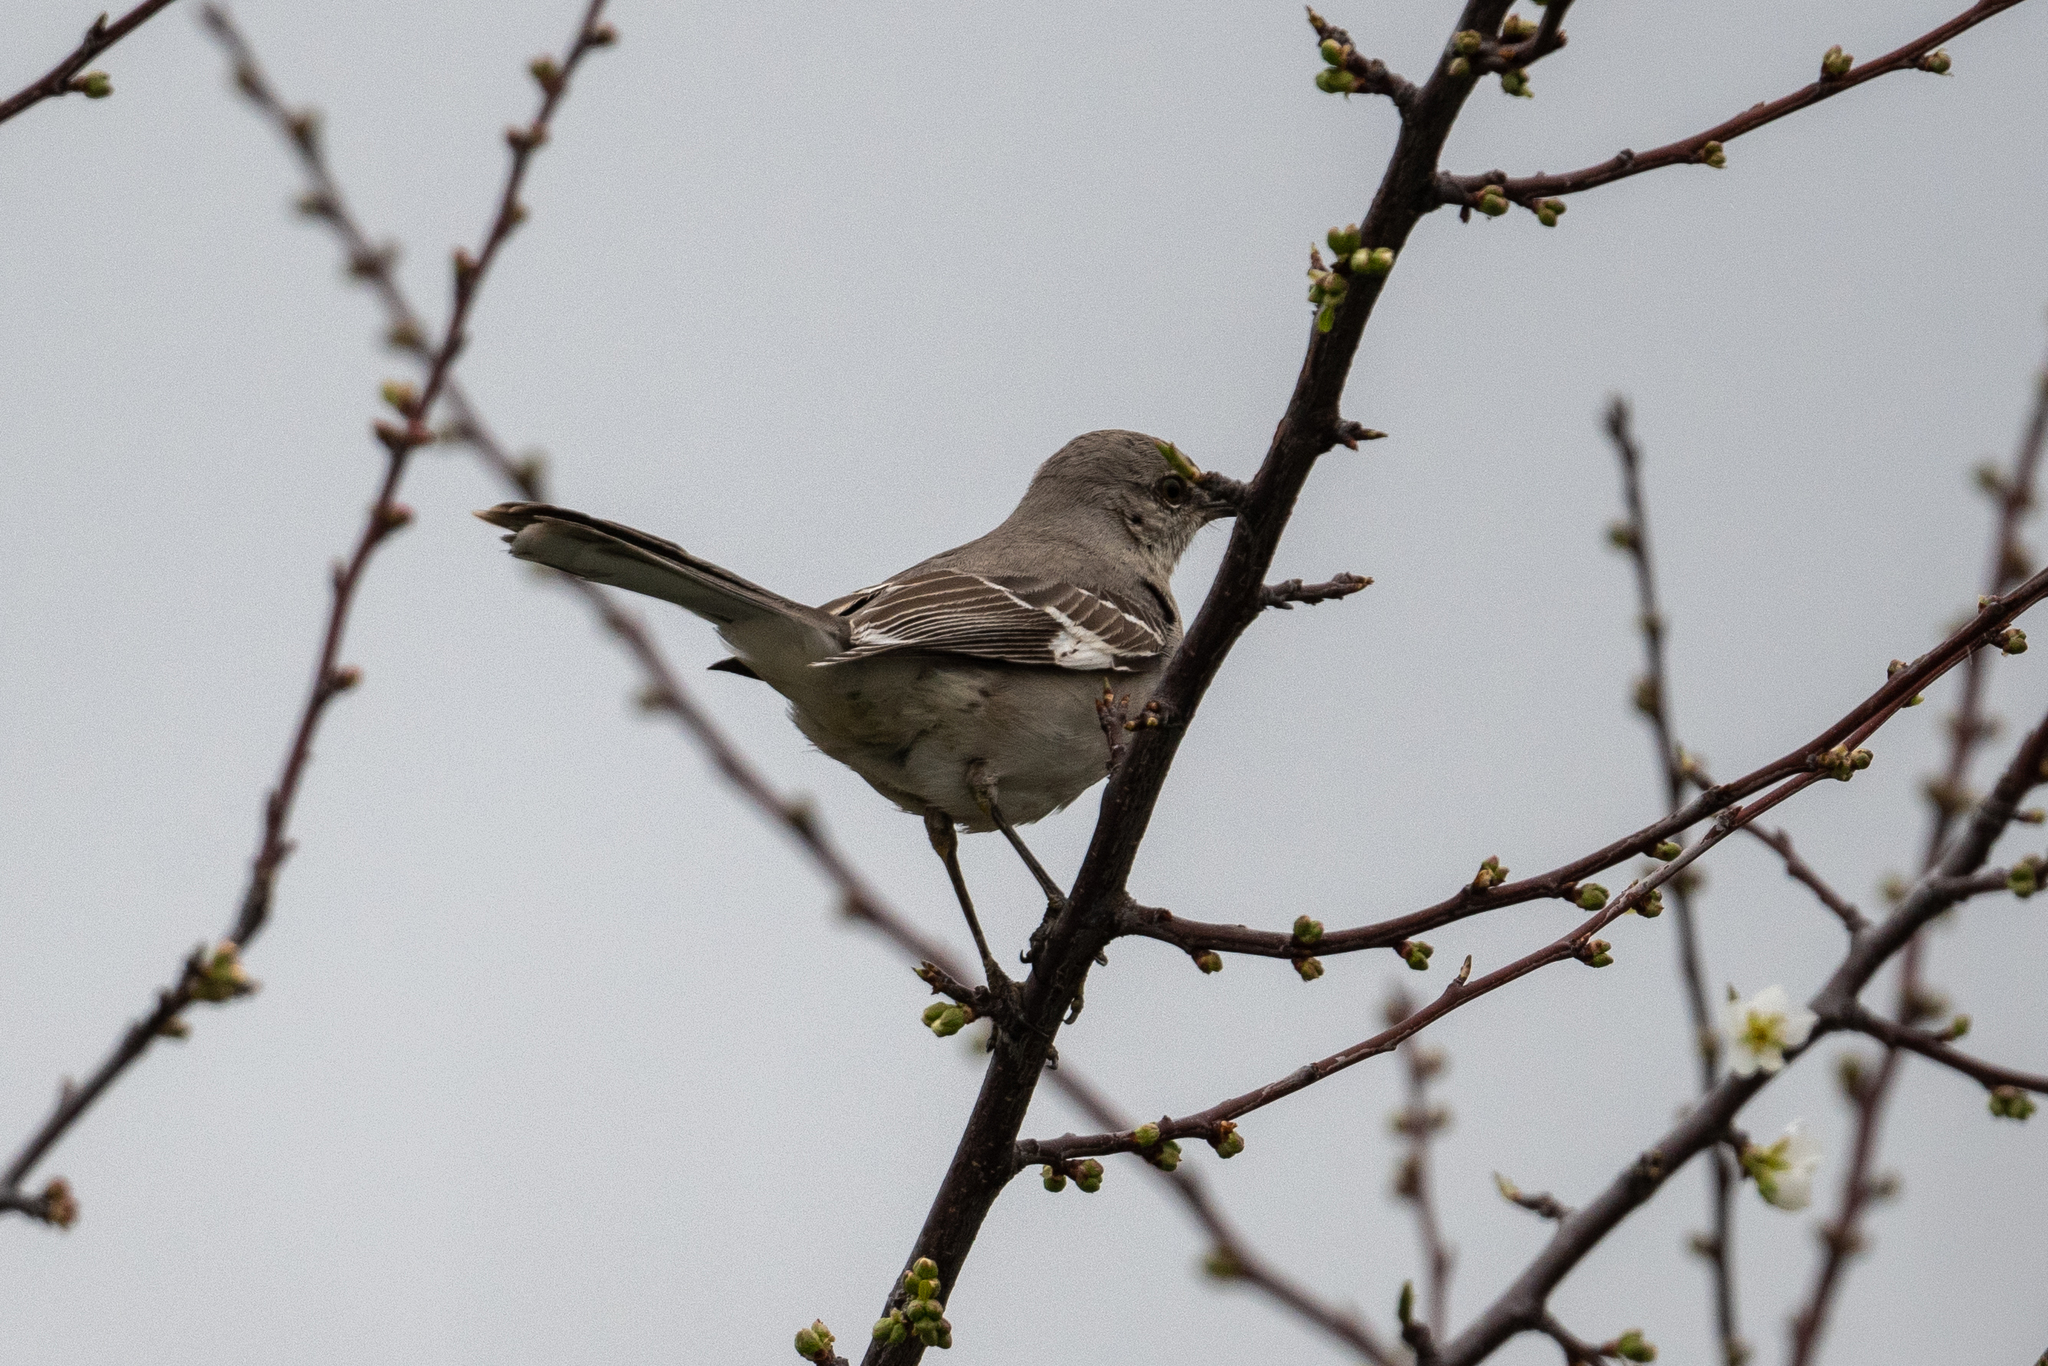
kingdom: Animalia
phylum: Chordata
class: Aves
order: Passeriformes
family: Mimidae
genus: Mimus
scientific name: Mimus polyglottos
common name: Northern mockingbird
